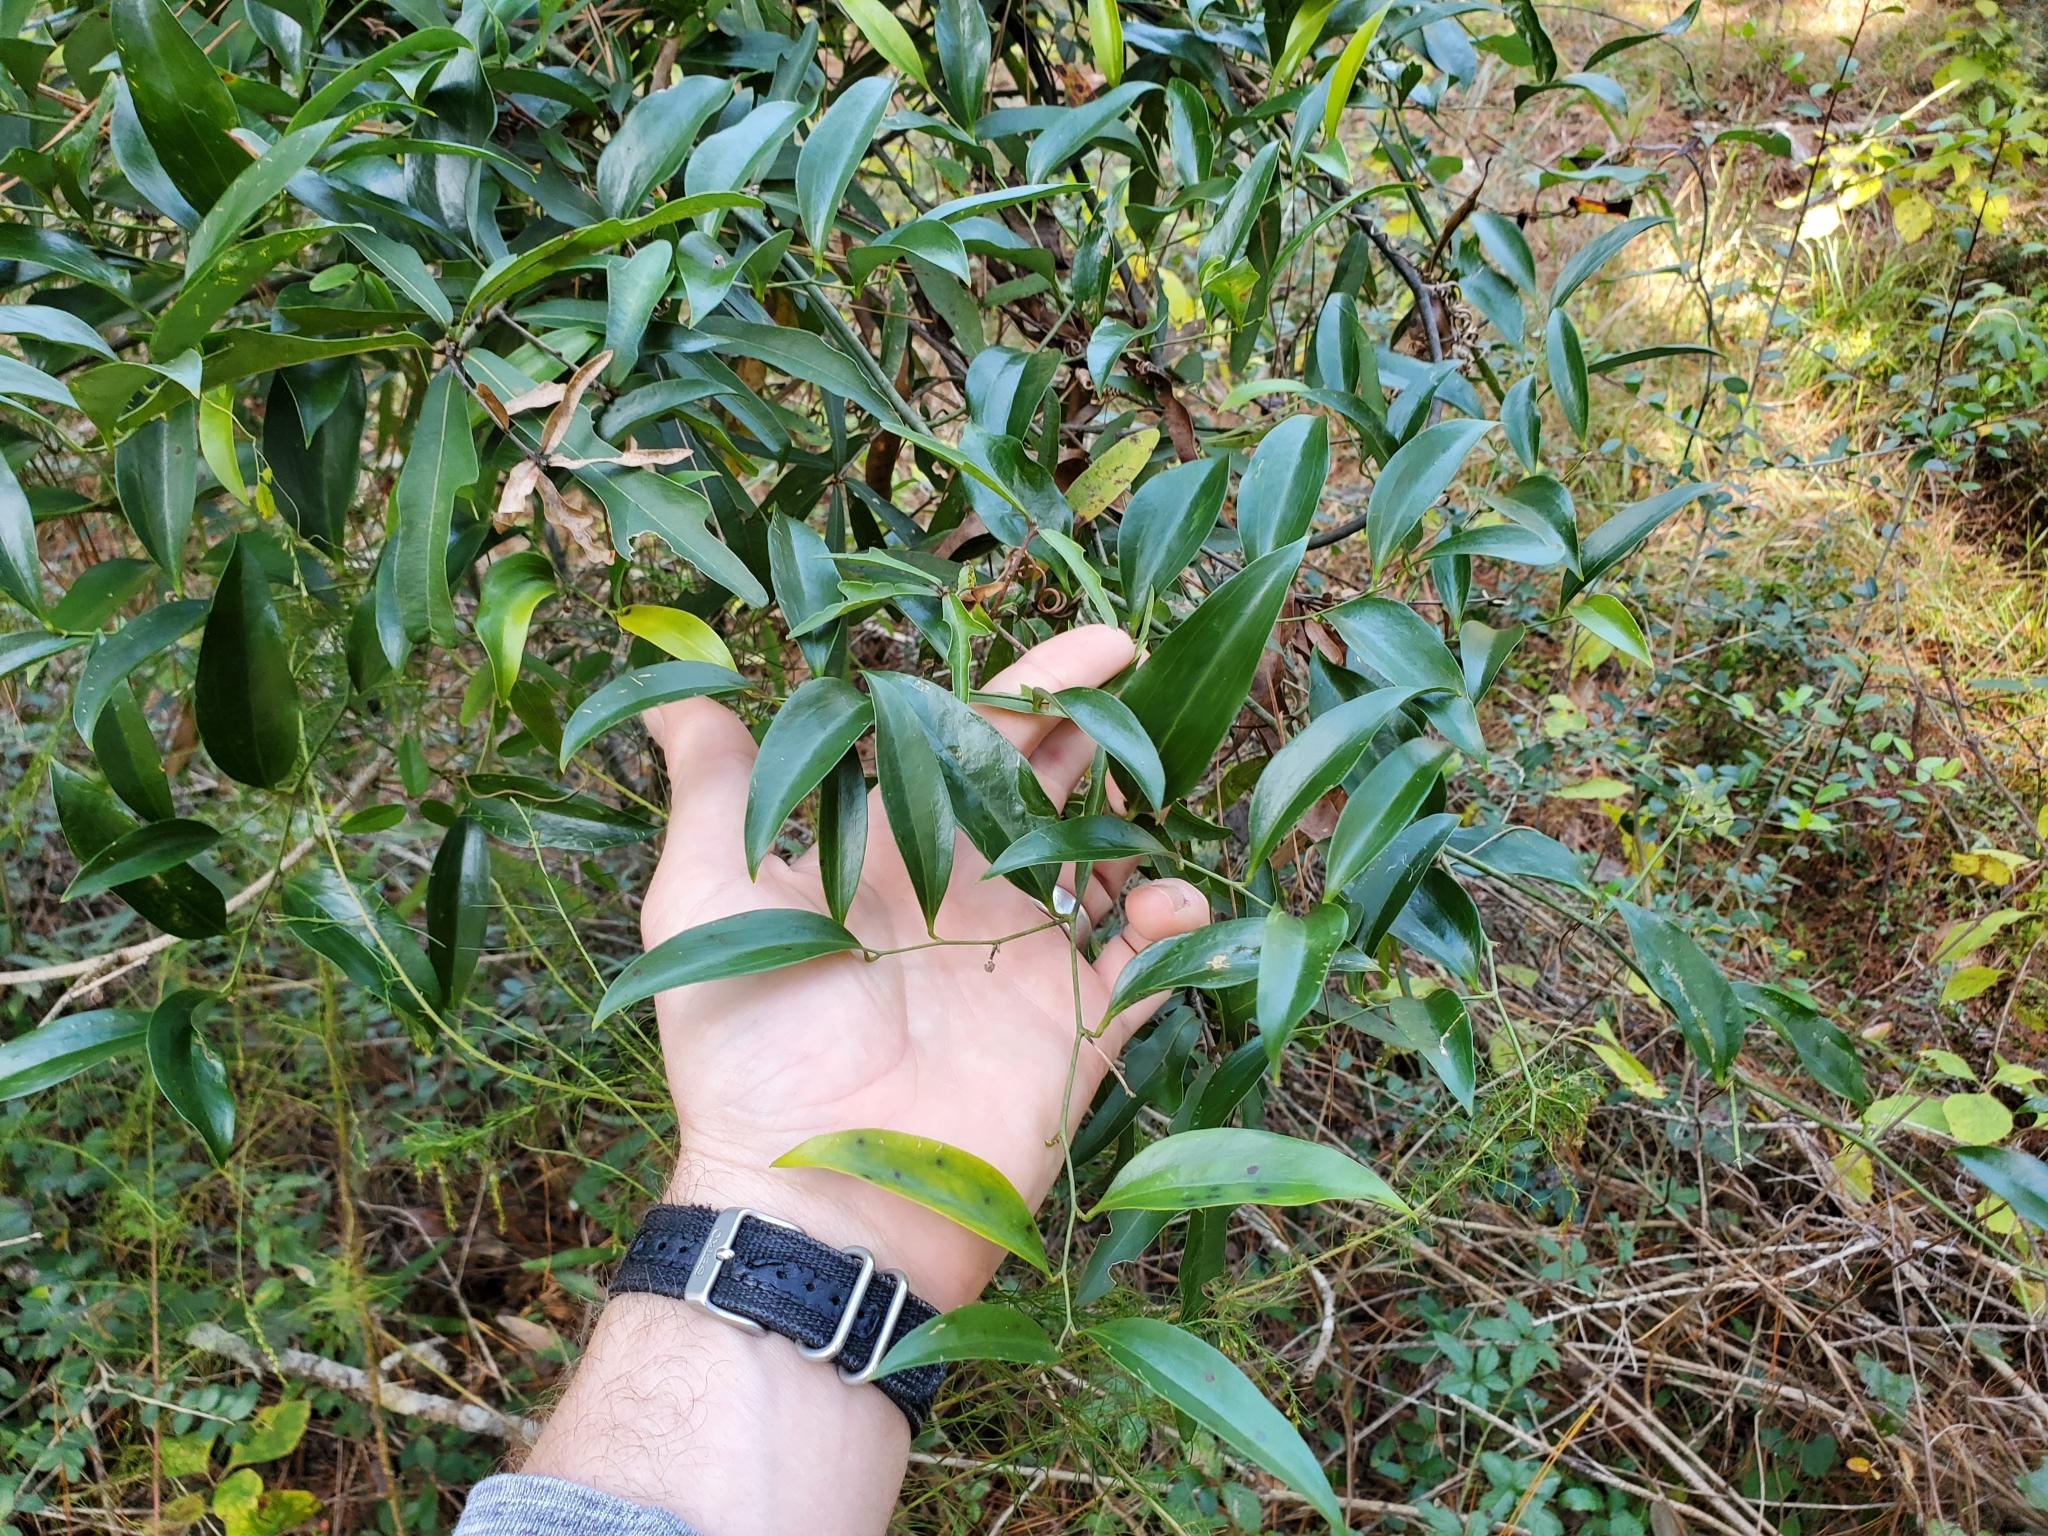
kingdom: Plantae
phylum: Tracheophyta
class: Liliopsida
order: Liliales
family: Smilacaceae
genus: Smilax
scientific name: Smilax maritima
